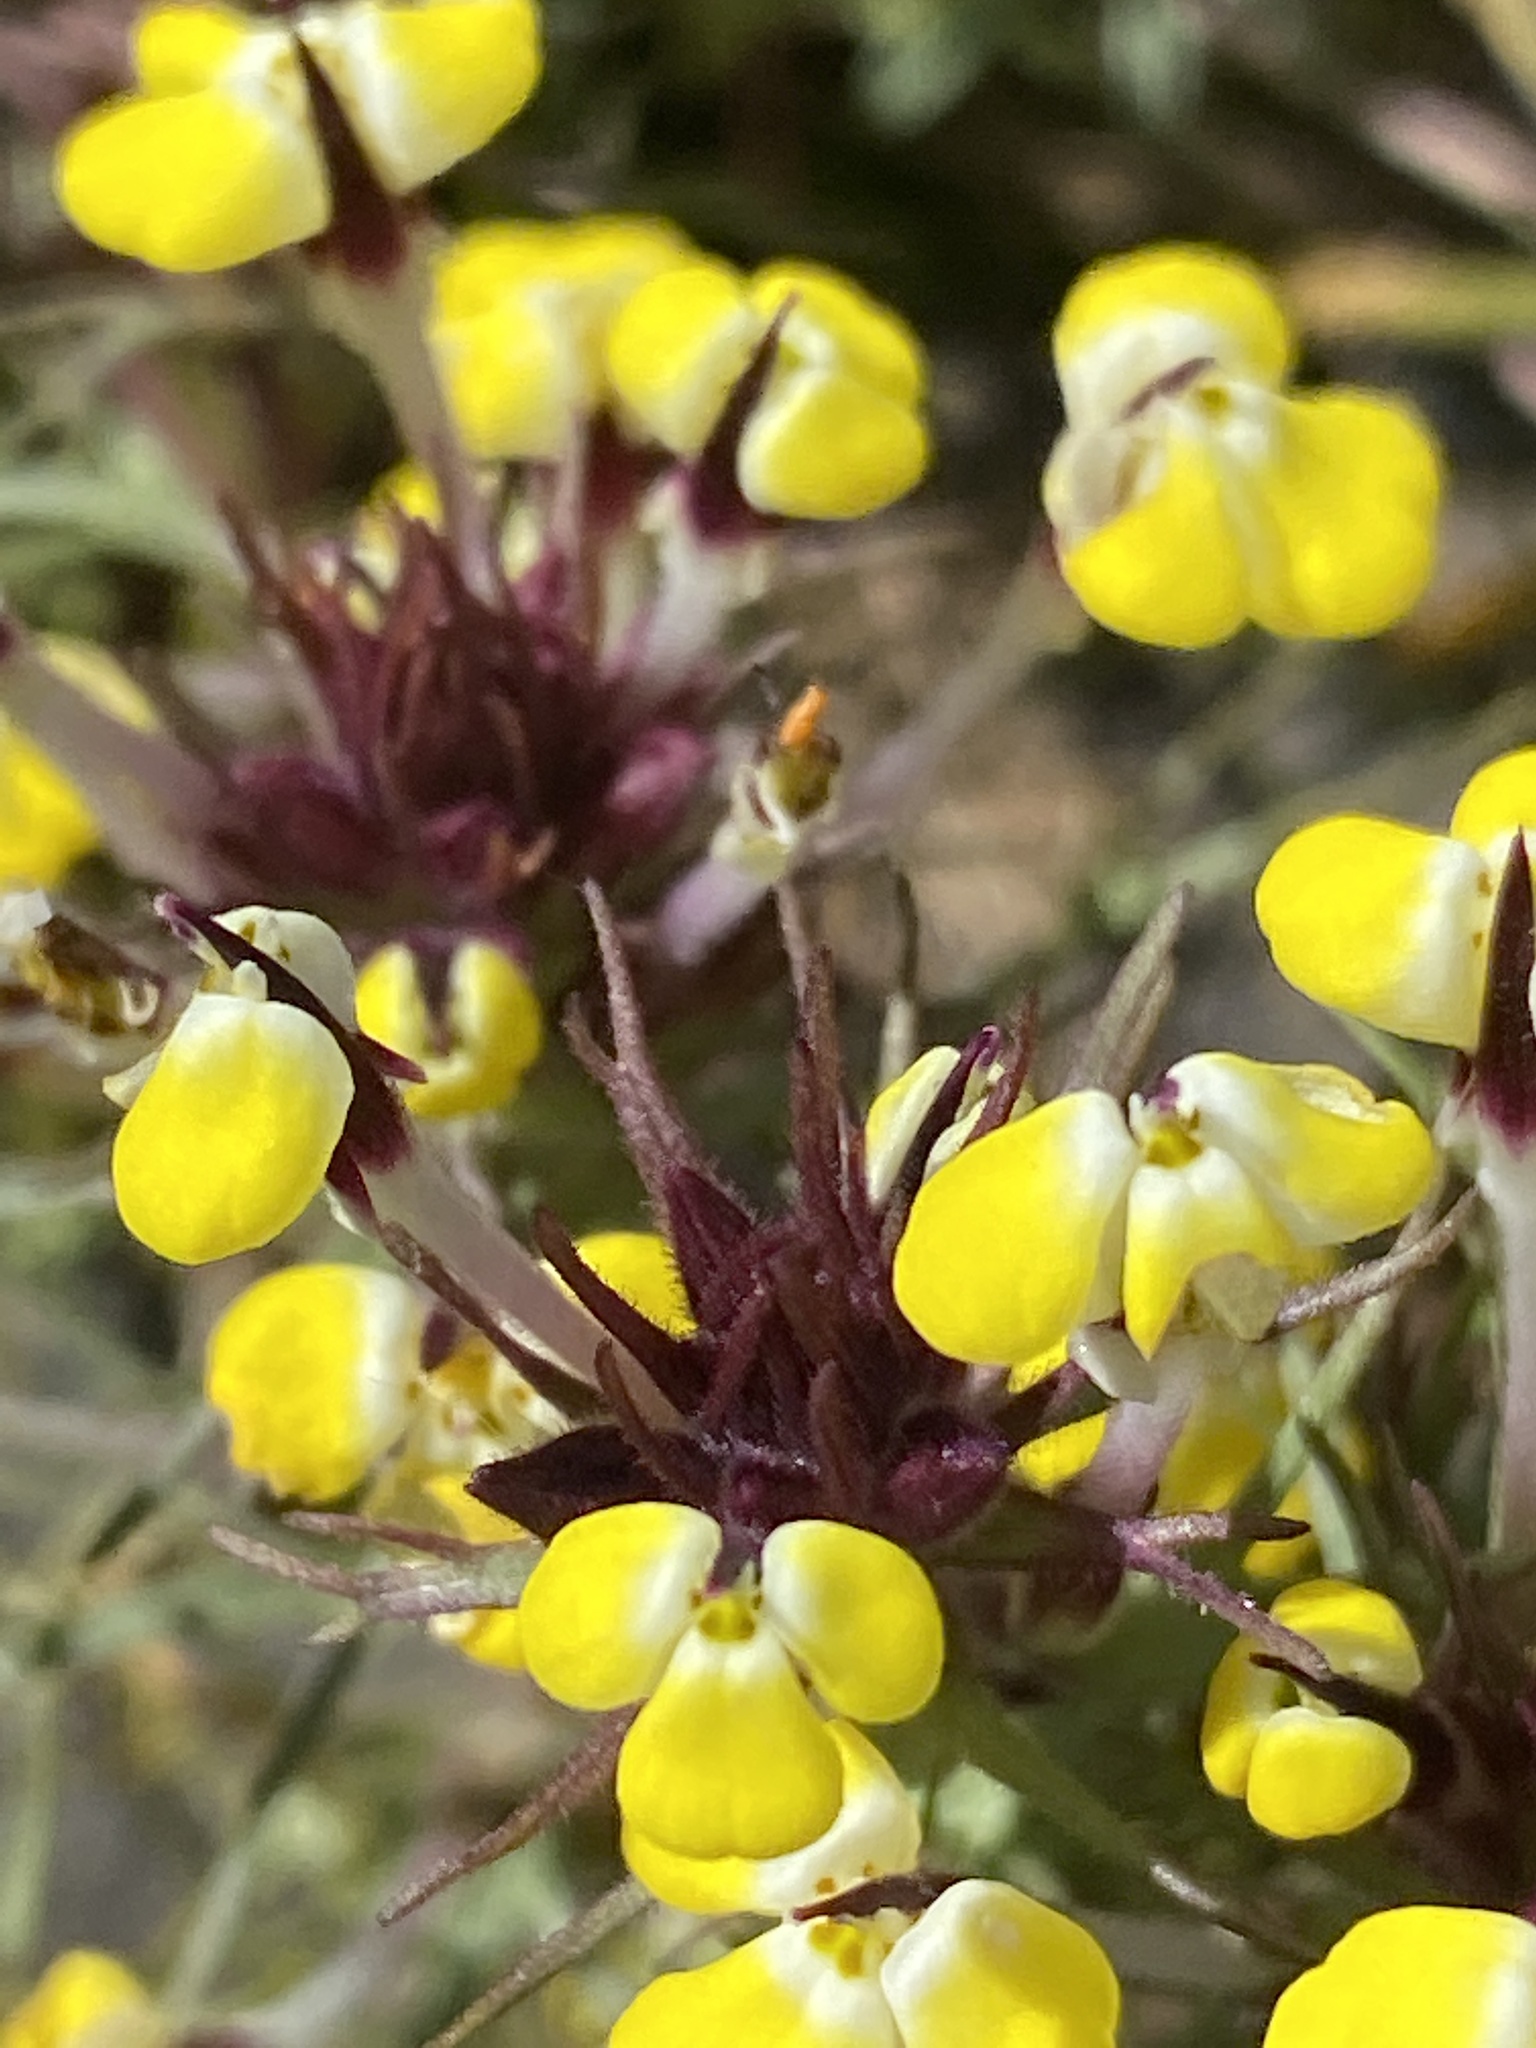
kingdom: Plantae
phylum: Tracheophyta
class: Magnoliopsida
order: Lamiales
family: Orobanchaceae
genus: Triphysaria
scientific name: Triphysaria eriantha
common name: Johnny-tuck
